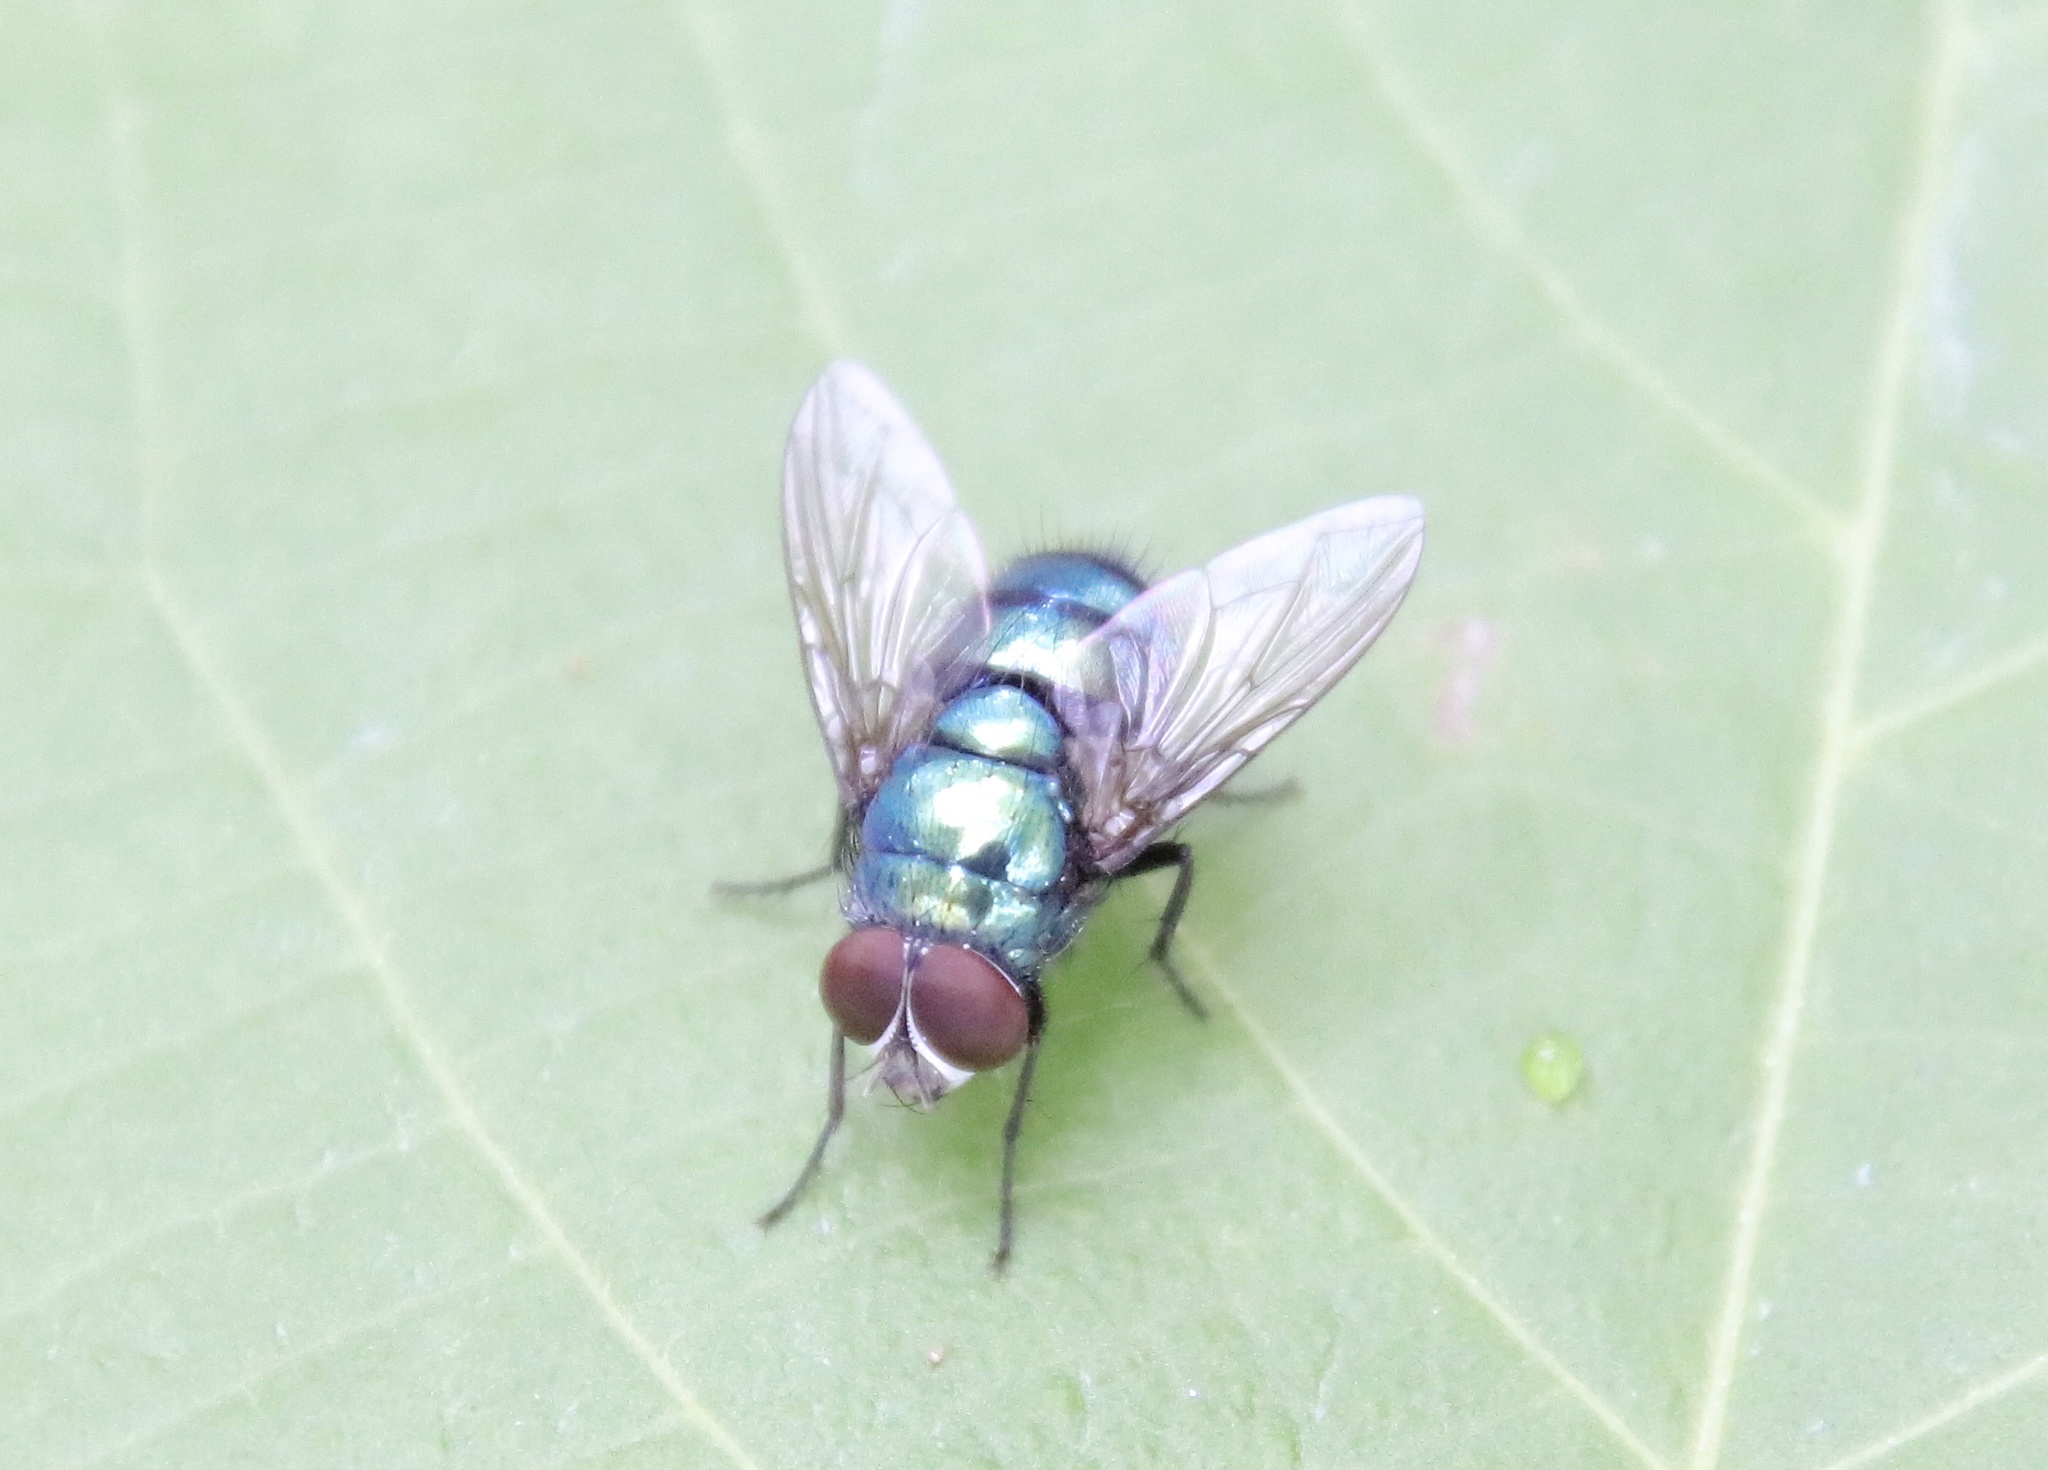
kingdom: Animalia
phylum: Arthropoda
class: Insecta
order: Diptera
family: Calliphoridae
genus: Chrysomya
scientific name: Chrysomya megacephala
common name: Blow fly
